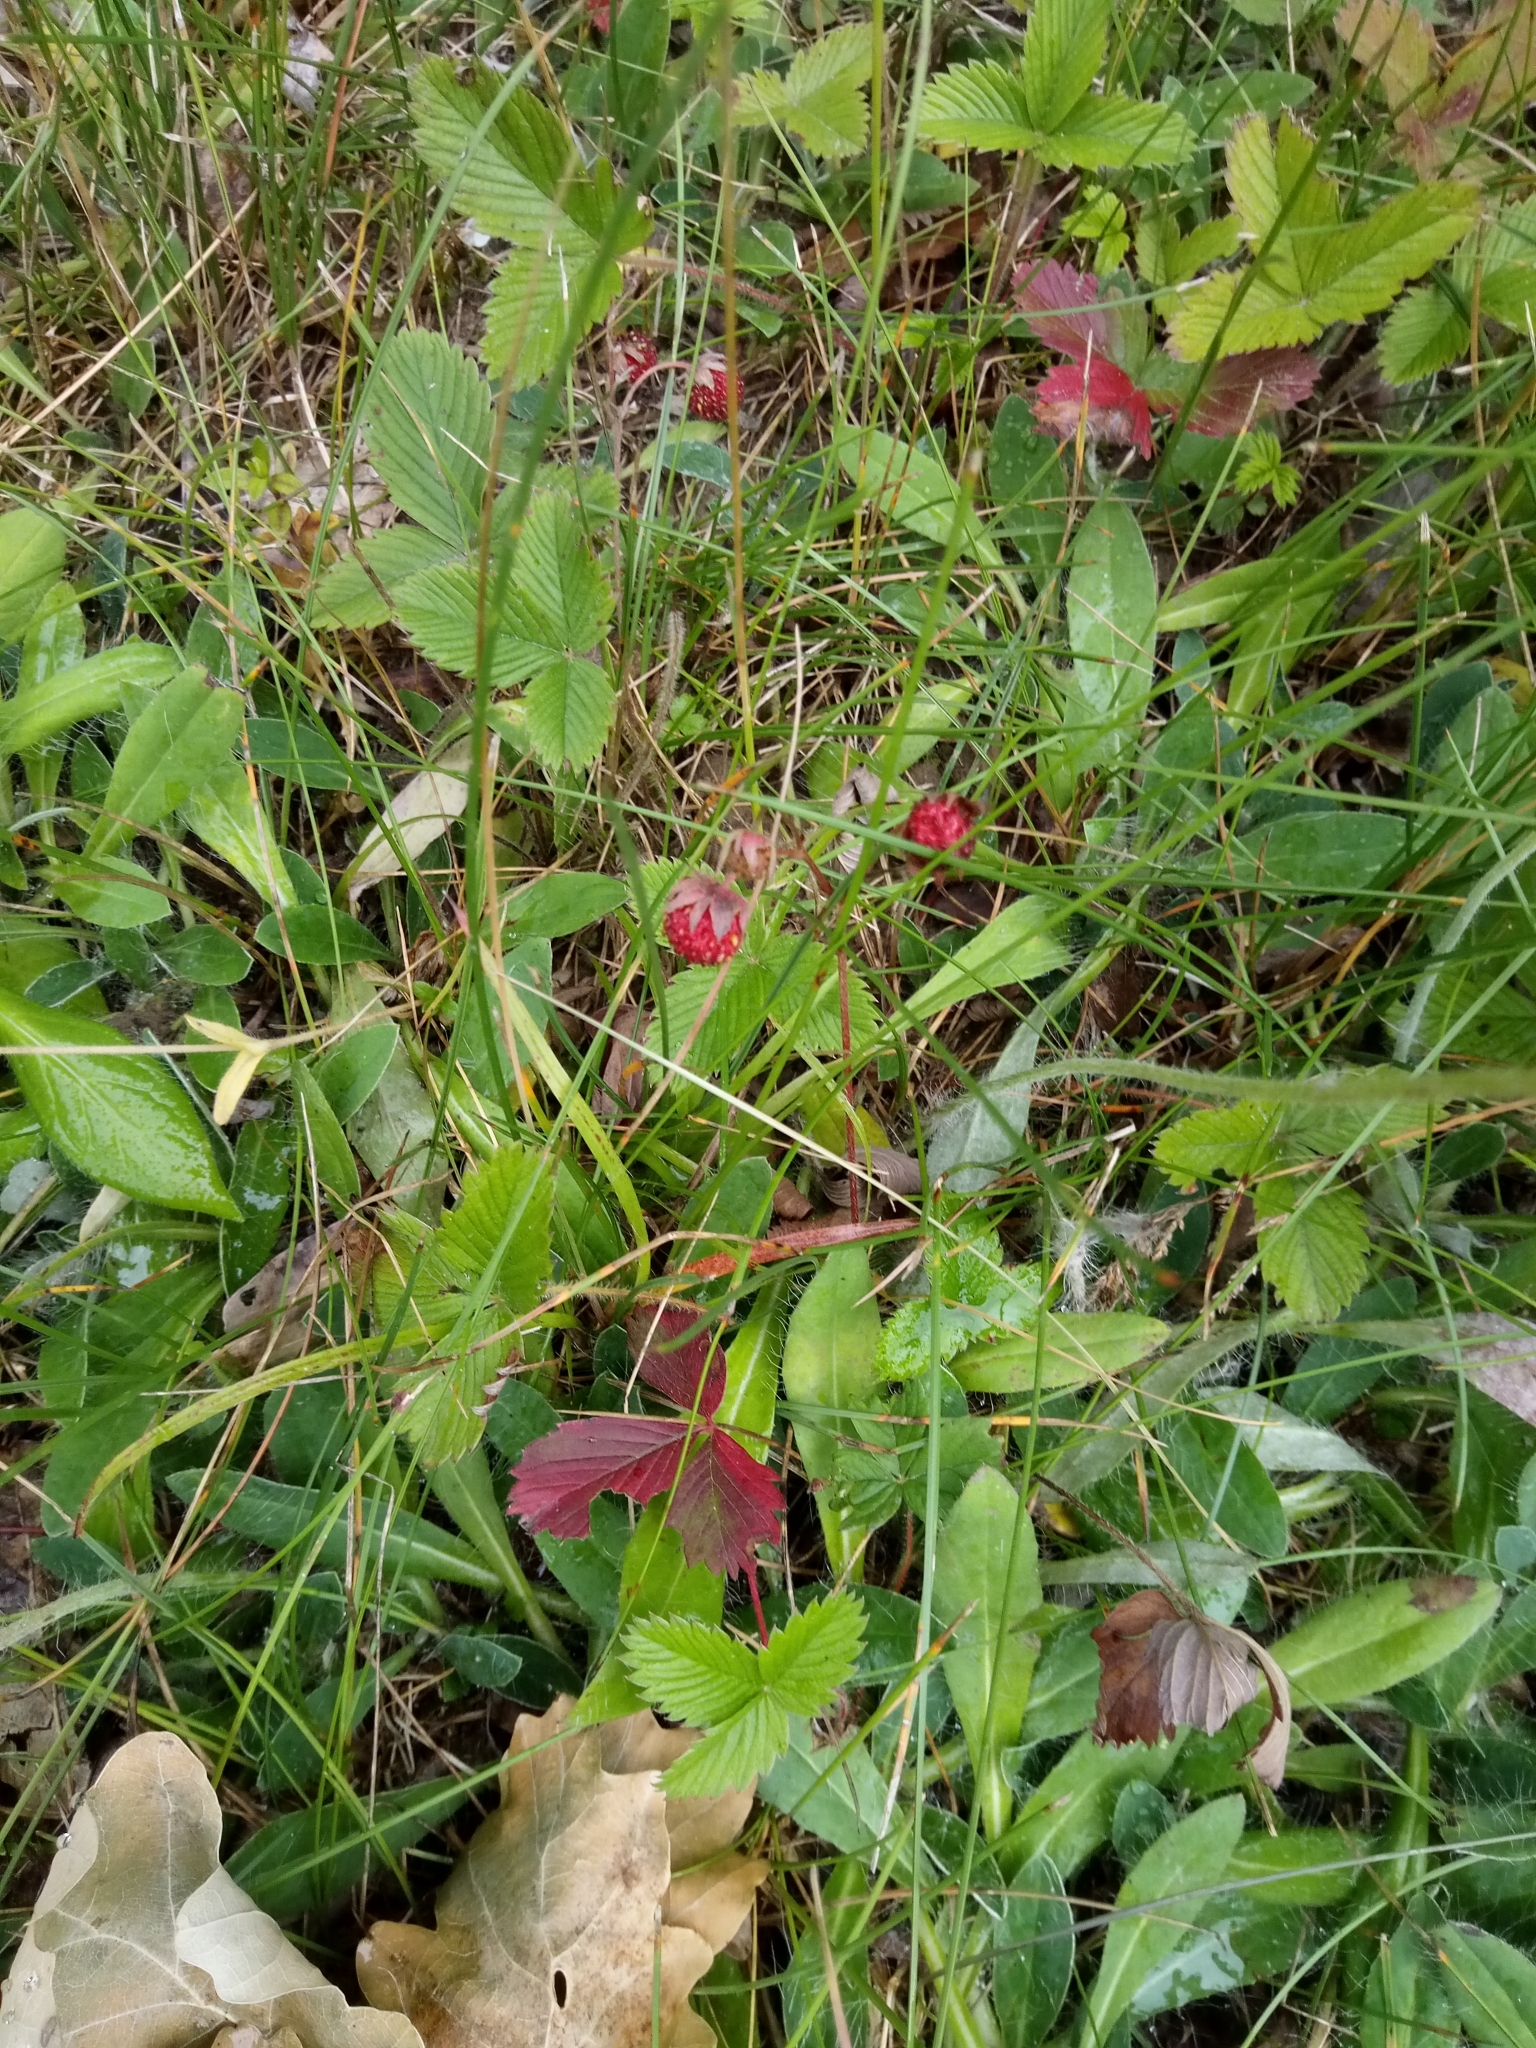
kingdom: Plantae
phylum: Tracheophyta
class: Magnoliopsida
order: Rosales
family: Rosaceae
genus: Fragaria
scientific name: Fragaria viridis
